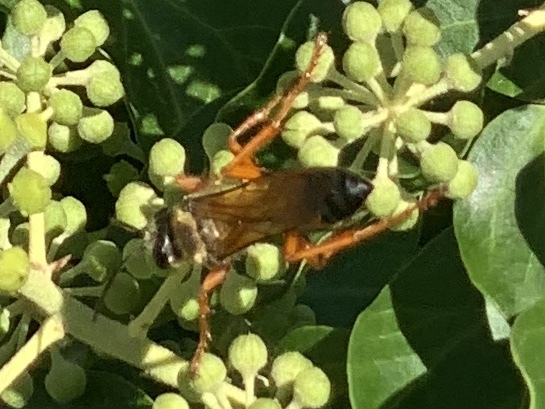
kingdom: Animalia
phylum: Arthropoda
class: Insecta
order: Hymenoptera
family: Sphecidae
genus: Sphex
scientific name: Sphex ichneumoneus
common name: Great golden digger wasp
